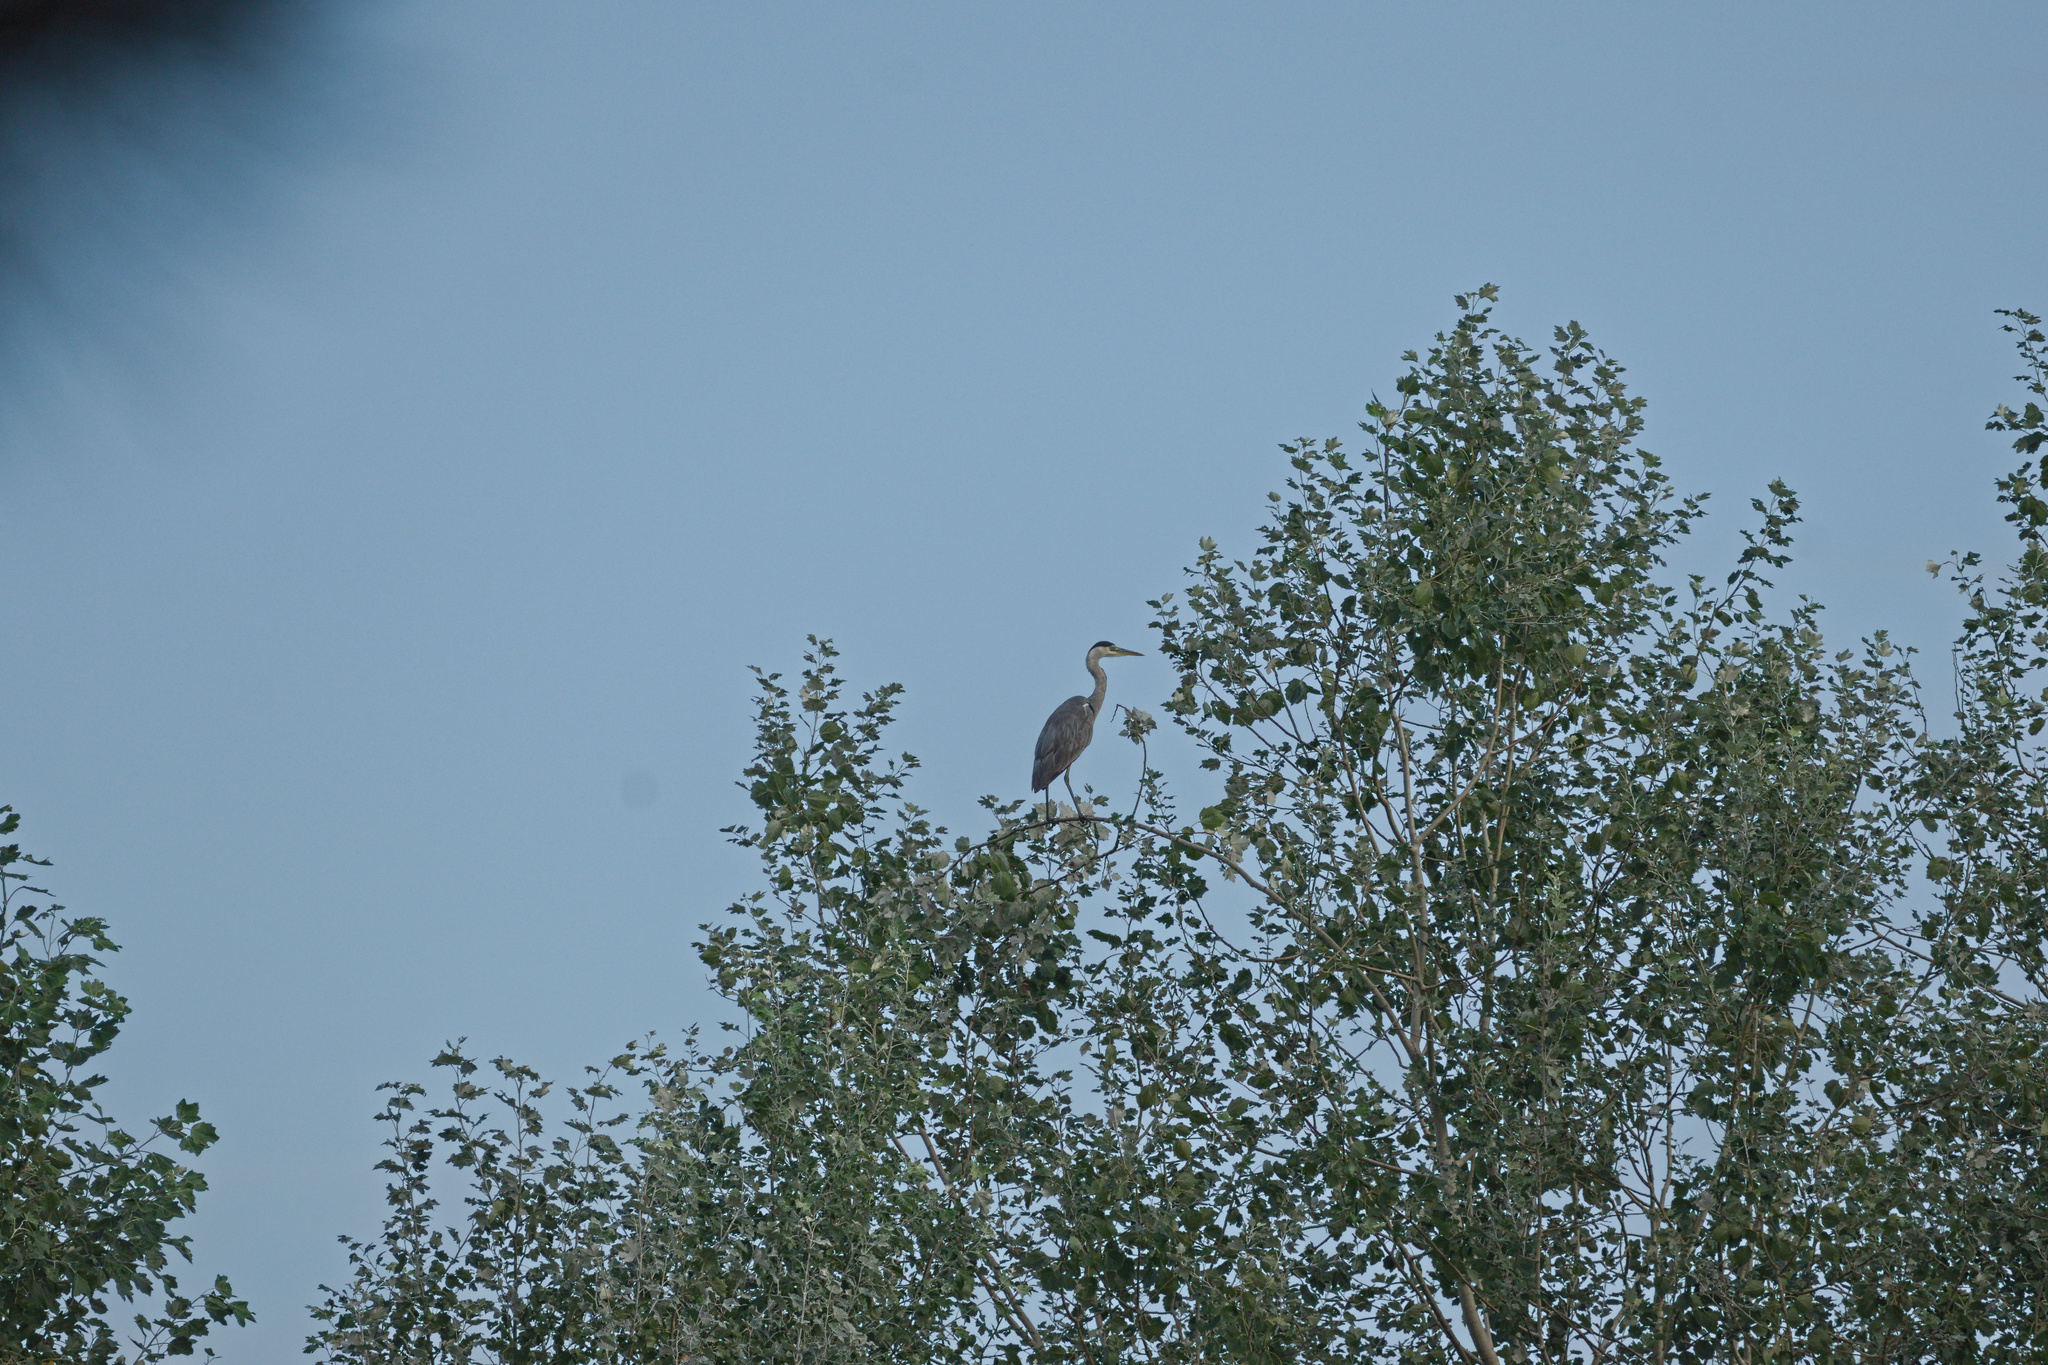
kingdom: Animalia
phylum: Chordata
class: Aves
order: Pelecaniformes
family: Ardeidae
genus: Ardea
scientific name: Ardea cinerea
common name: Grey heron
